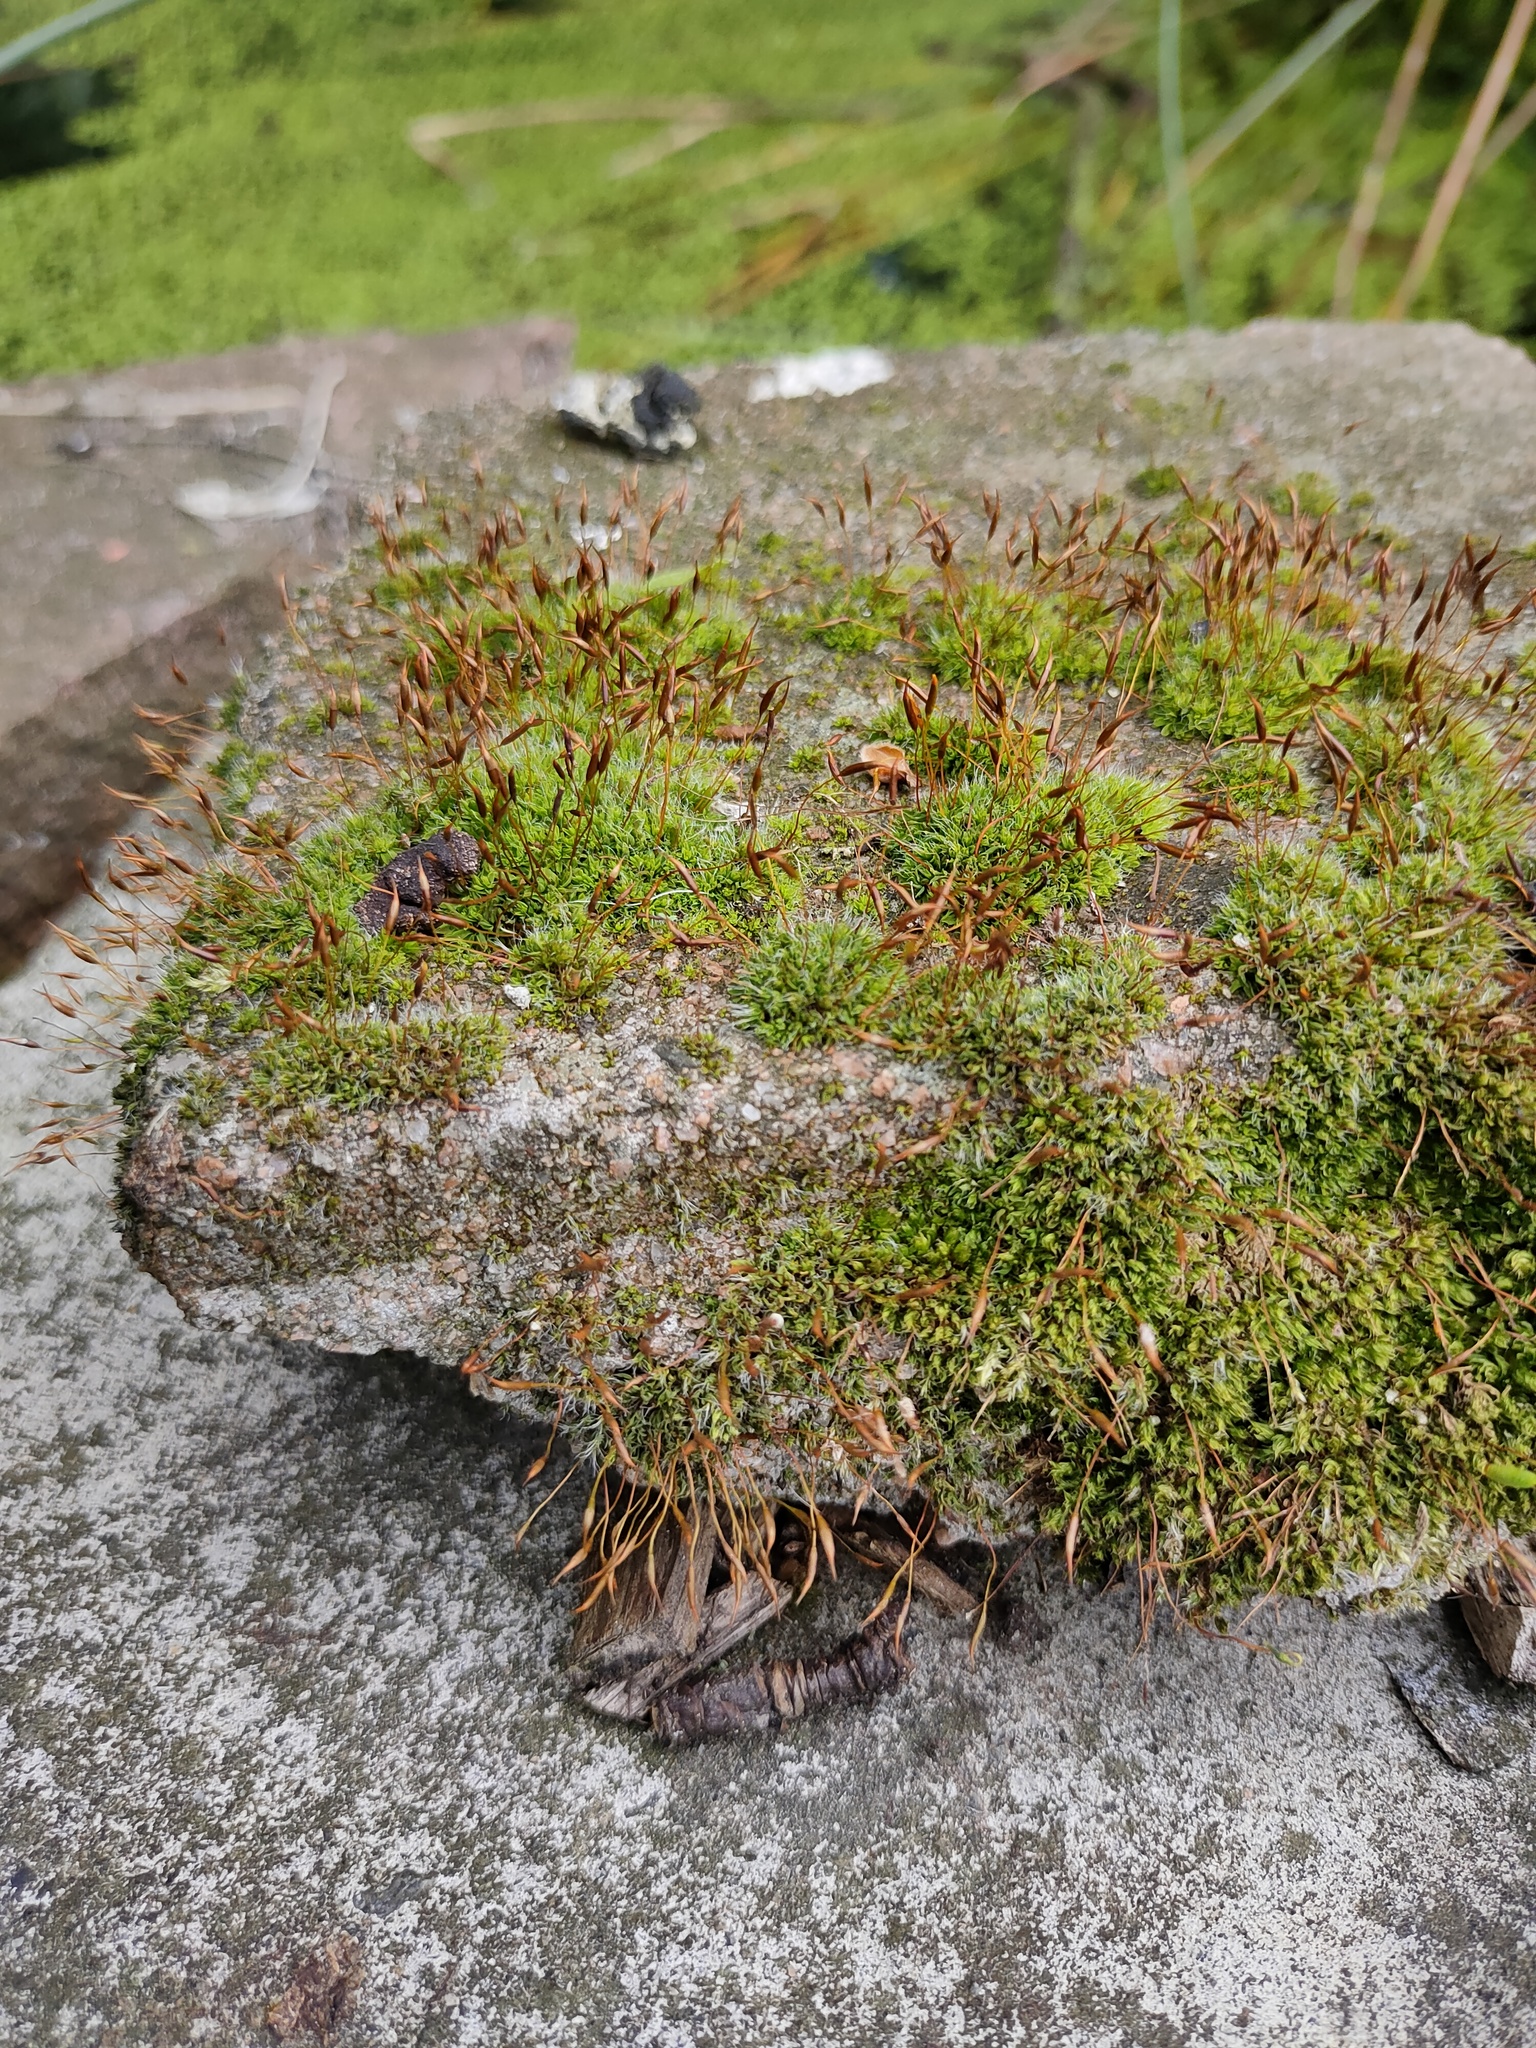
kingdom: Plantae
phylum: Bryophyta
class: Bryopsida
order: Pottiales
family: Pottiaceae
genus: Tortula
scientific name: Tortula muralis
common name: Wall screw-moss
